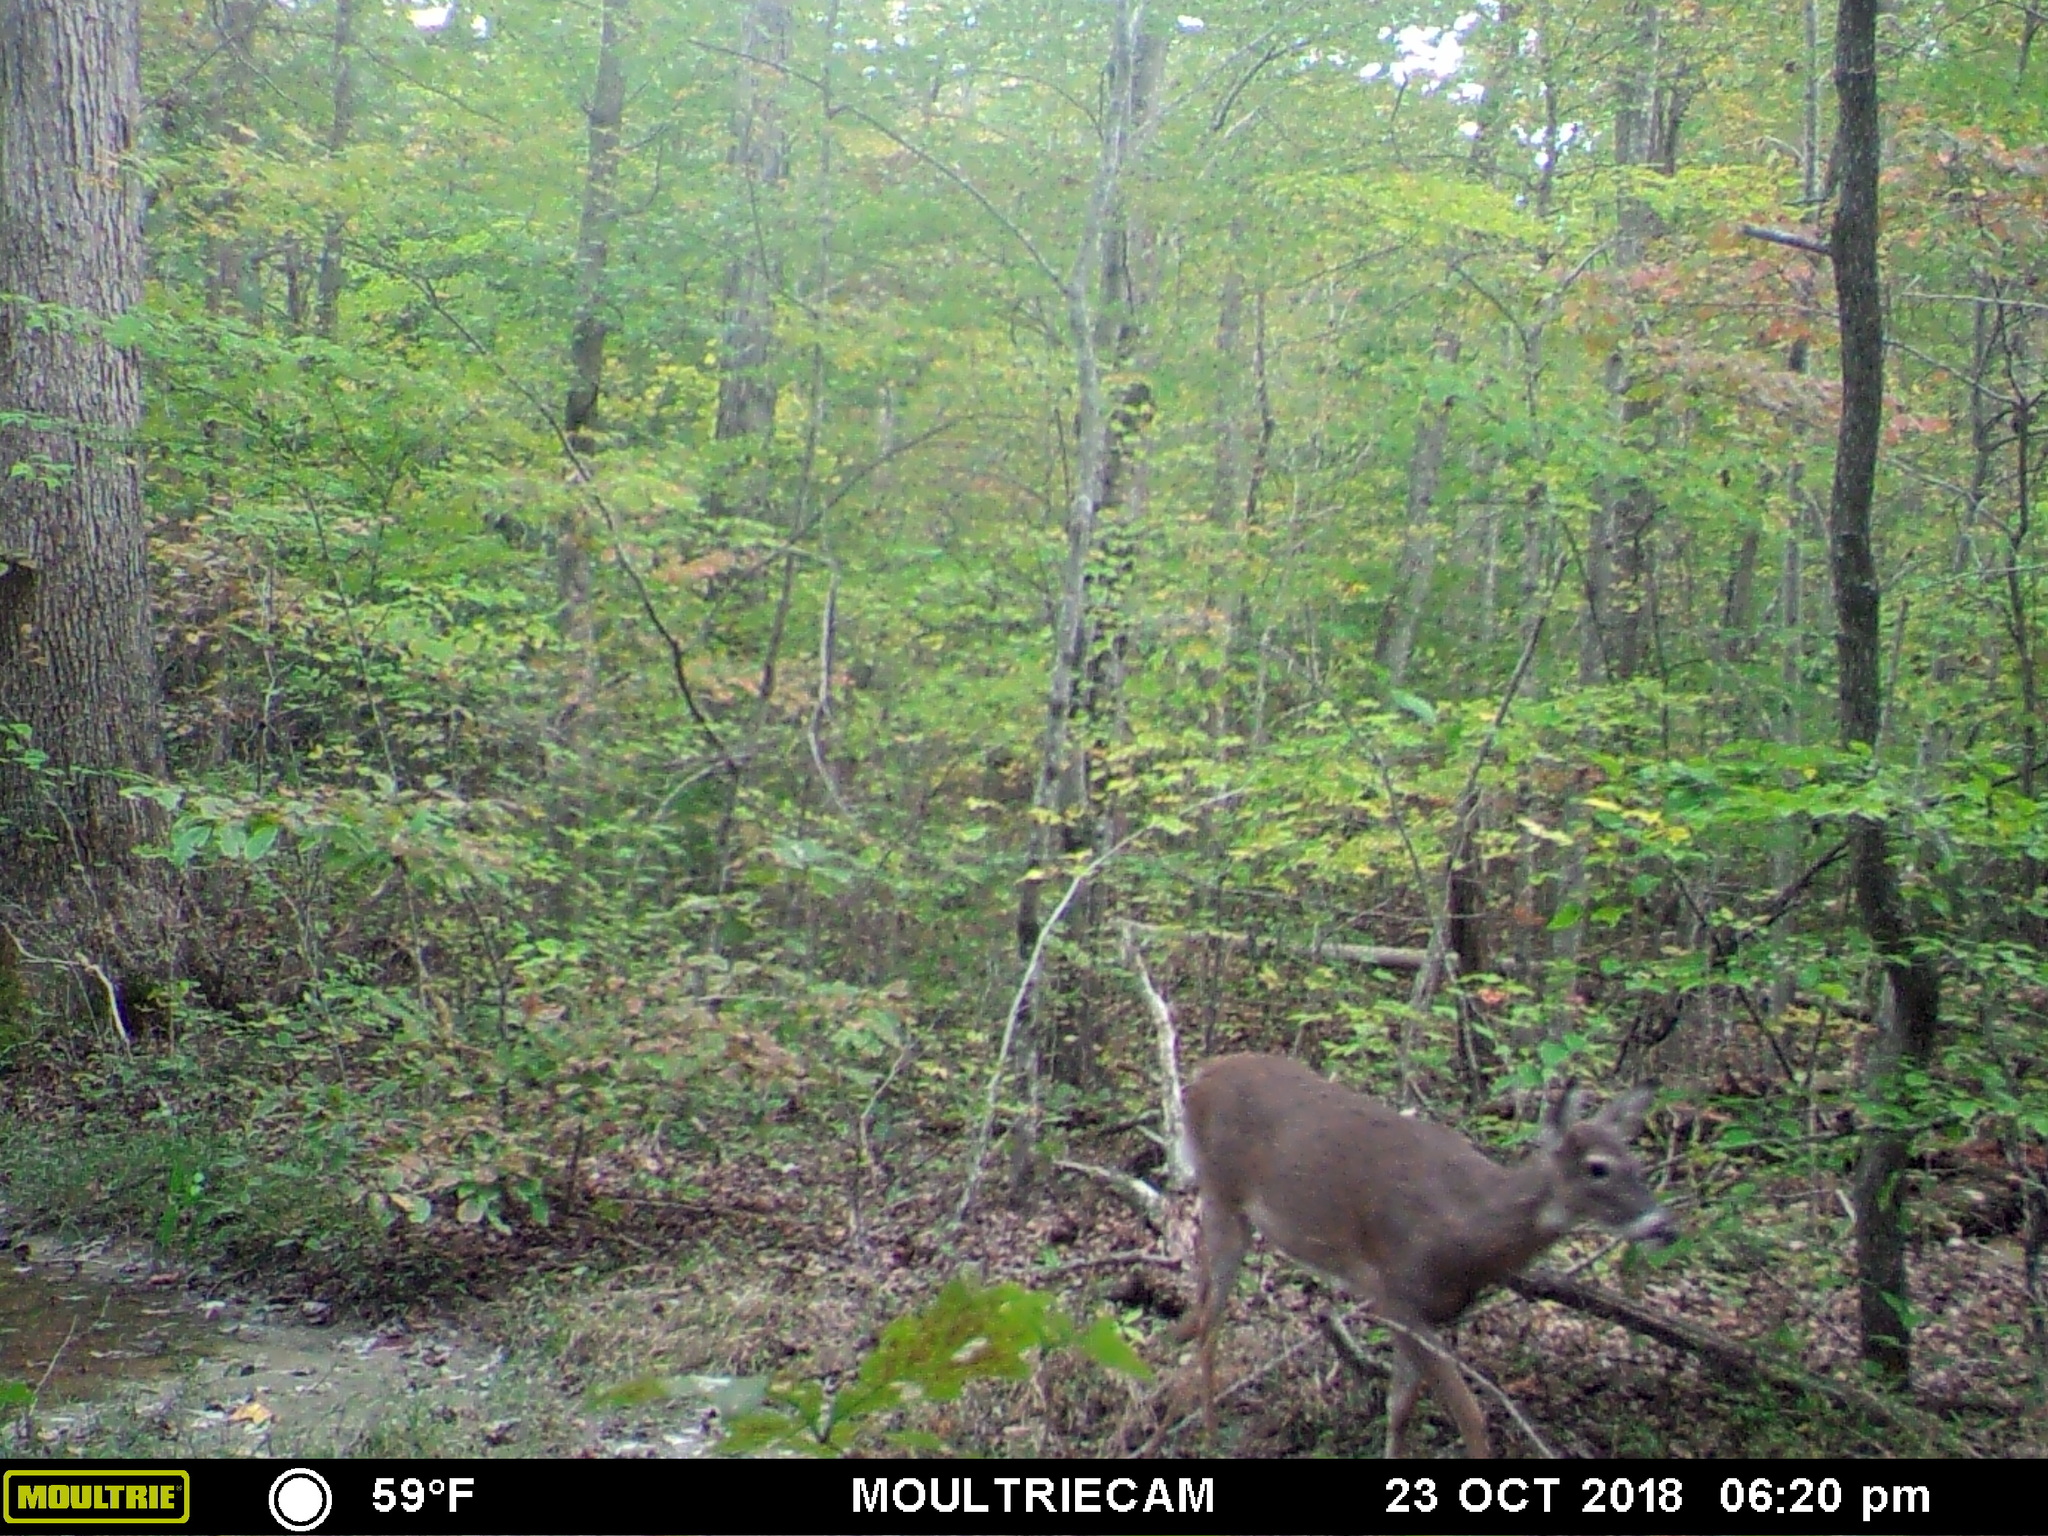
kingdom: Animalia
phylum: Chordata
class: Mammalia
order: Artiodactyla
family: Cervidae
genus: Odocoileus
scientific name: Odocoileus virginianus
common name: White-tailed deer
